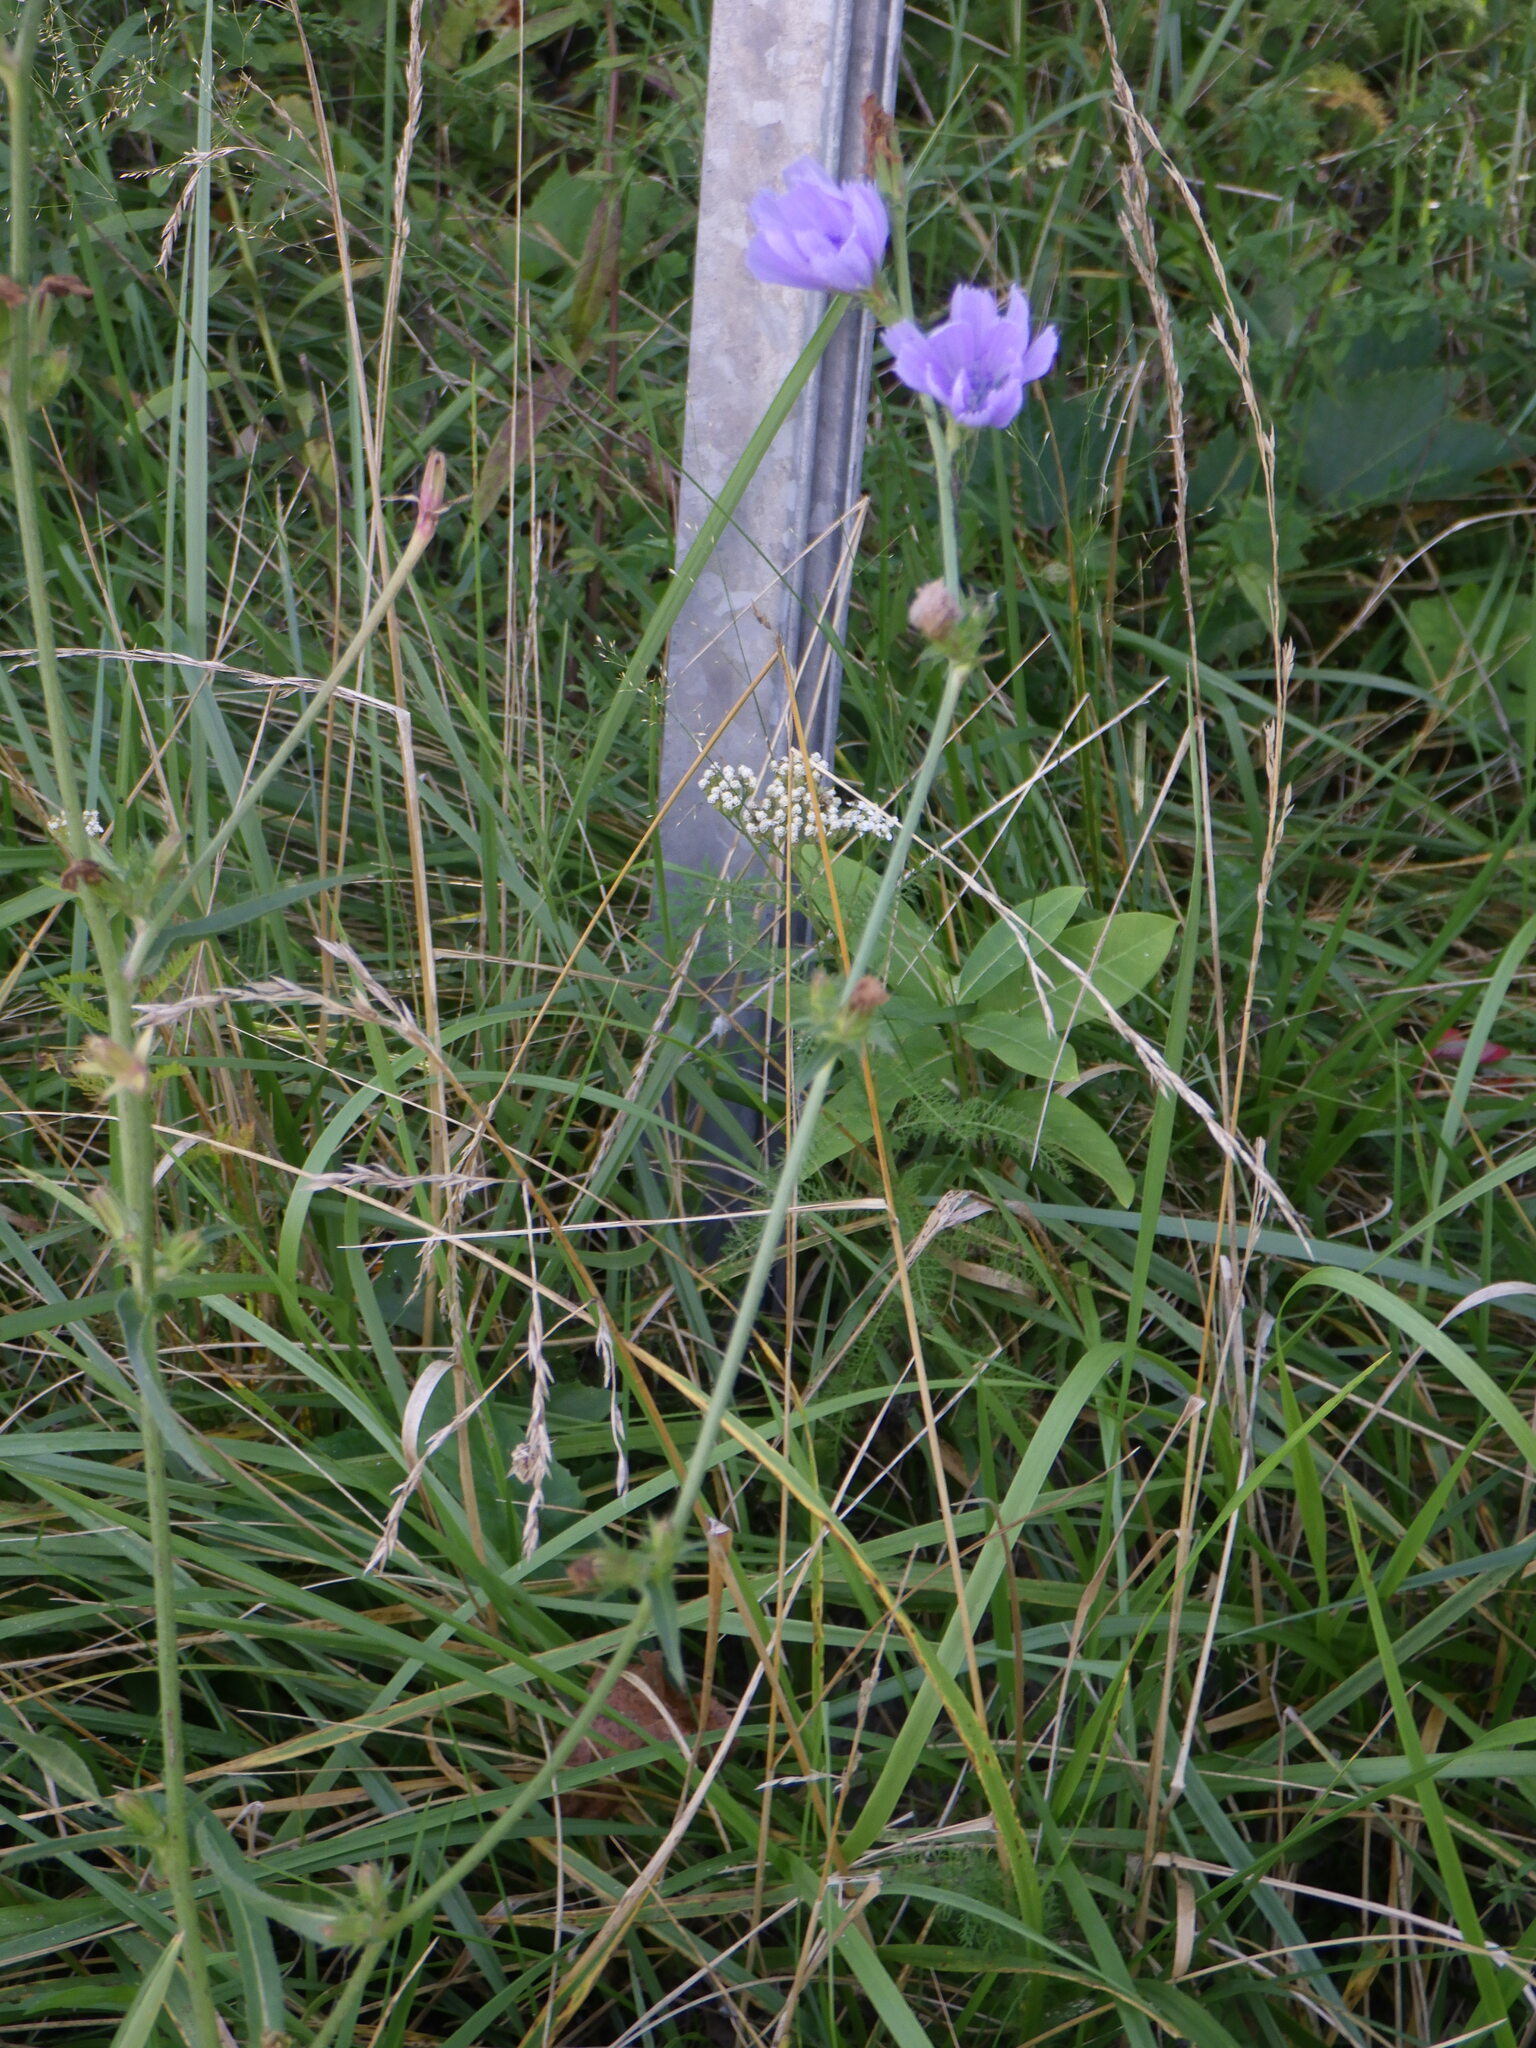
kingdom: Plantae
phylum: Tracheophyta
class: Magnoliopsida
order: Asterales
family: Asteraceae
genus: Cichorium
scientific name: Cichorium intybus
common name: Chicory
